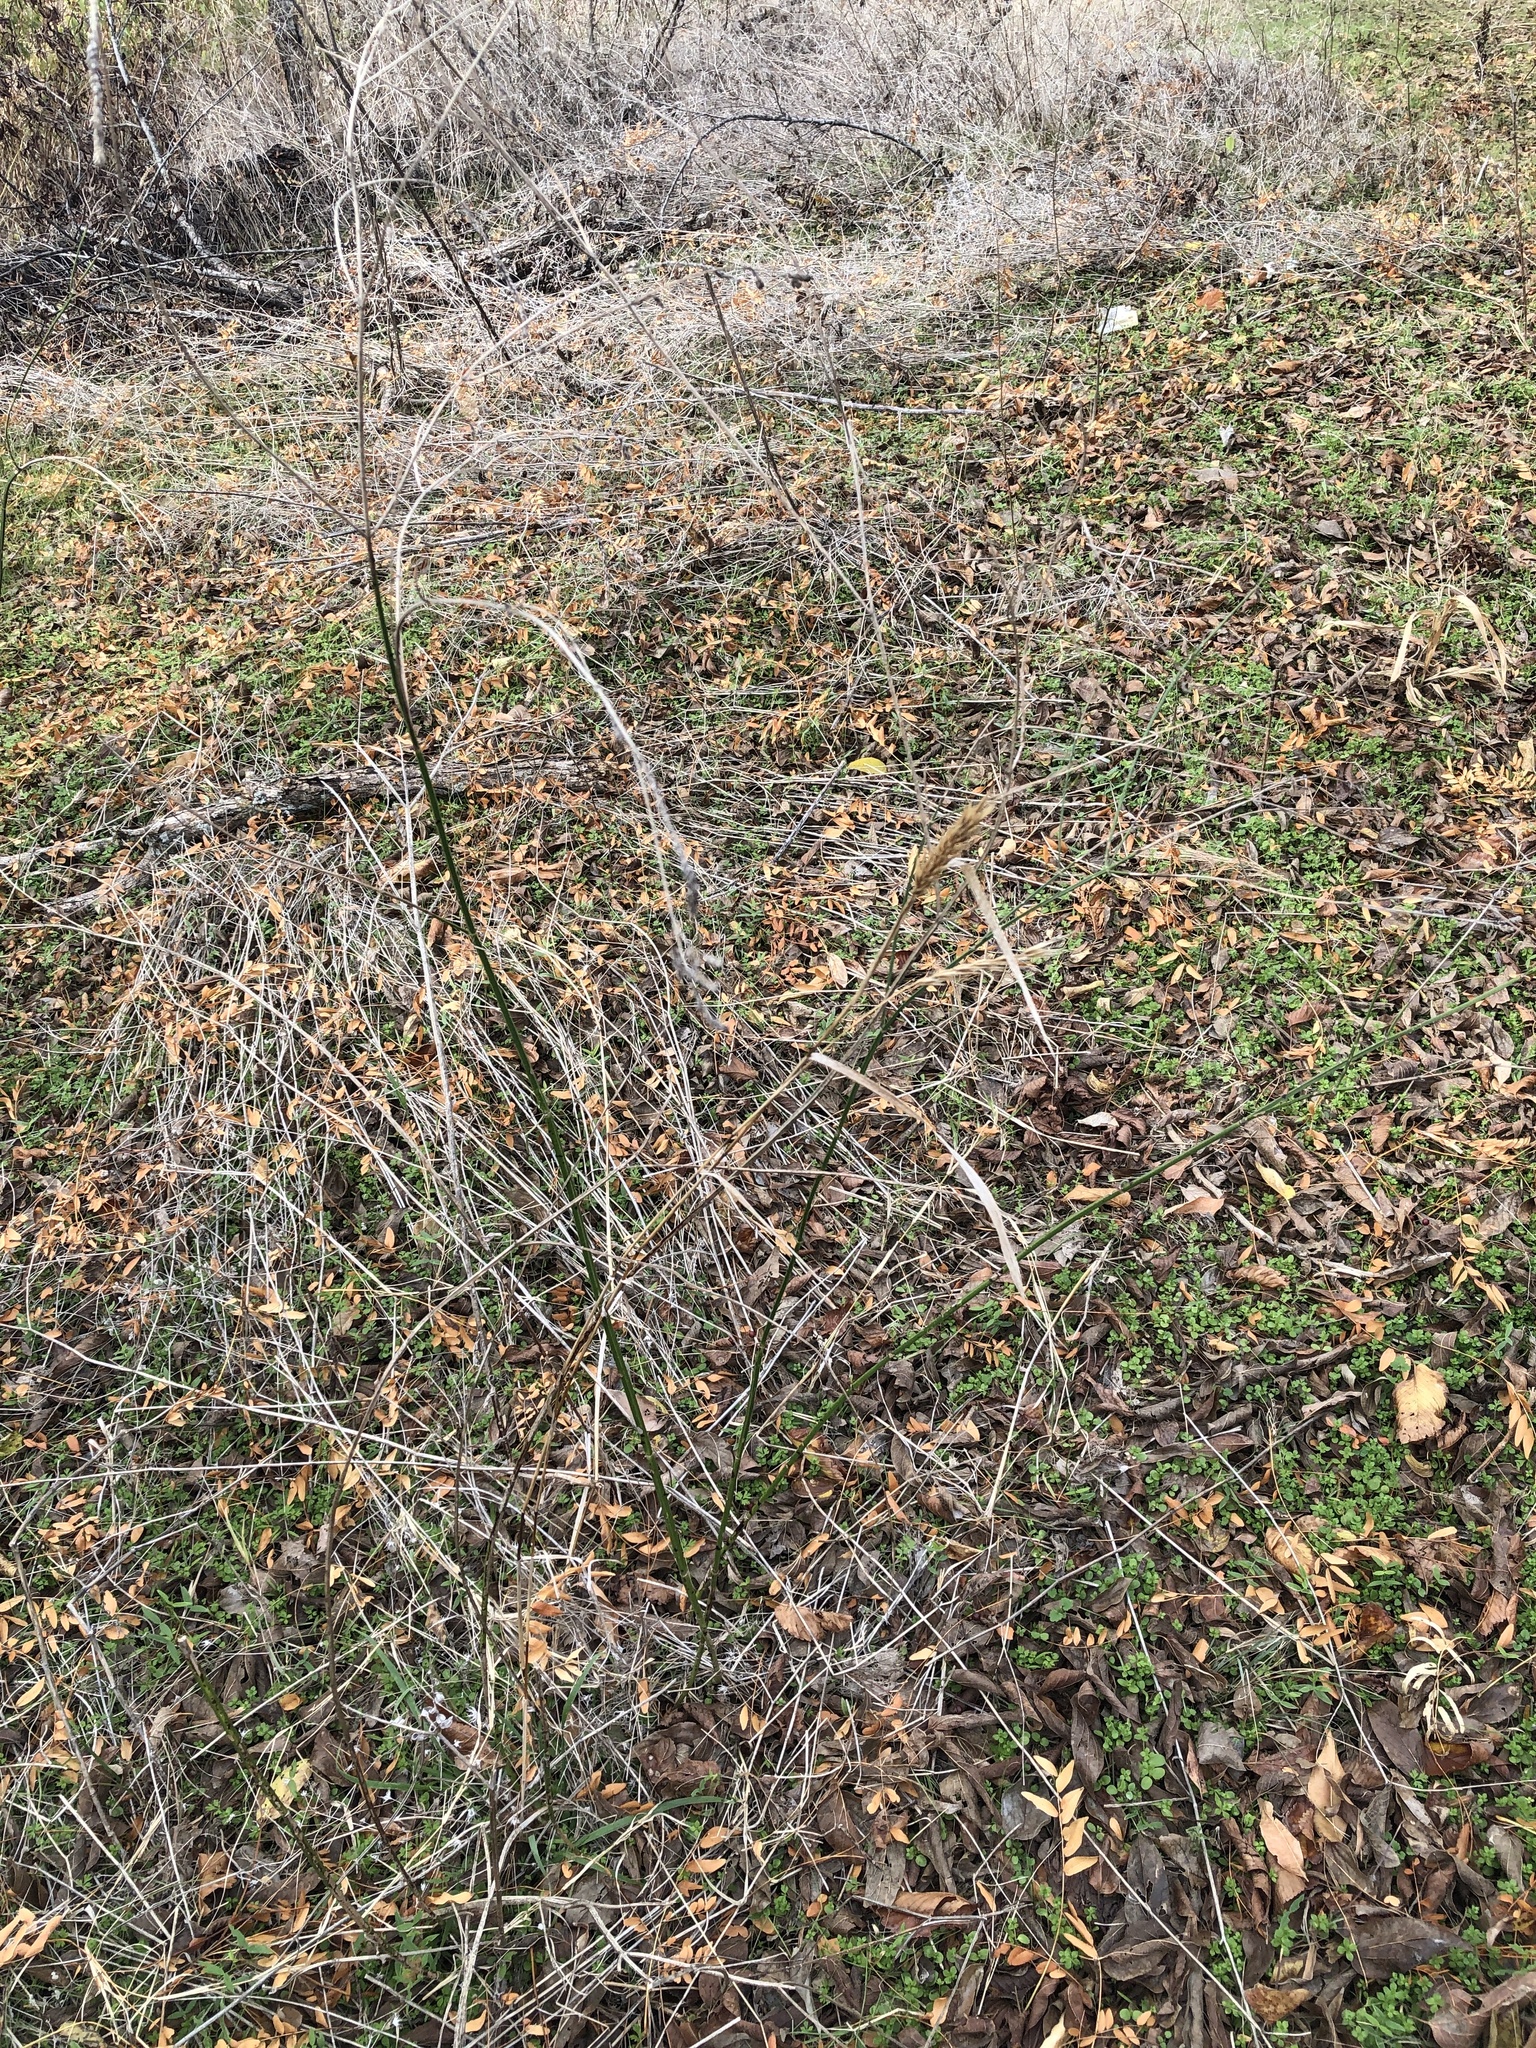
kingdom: Plantae
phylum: Tracheophyta
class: Liliopsida
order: Poales
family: Poaceae
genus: Elymus
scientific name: Elymus virginicus
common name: Common eastern wildrye
